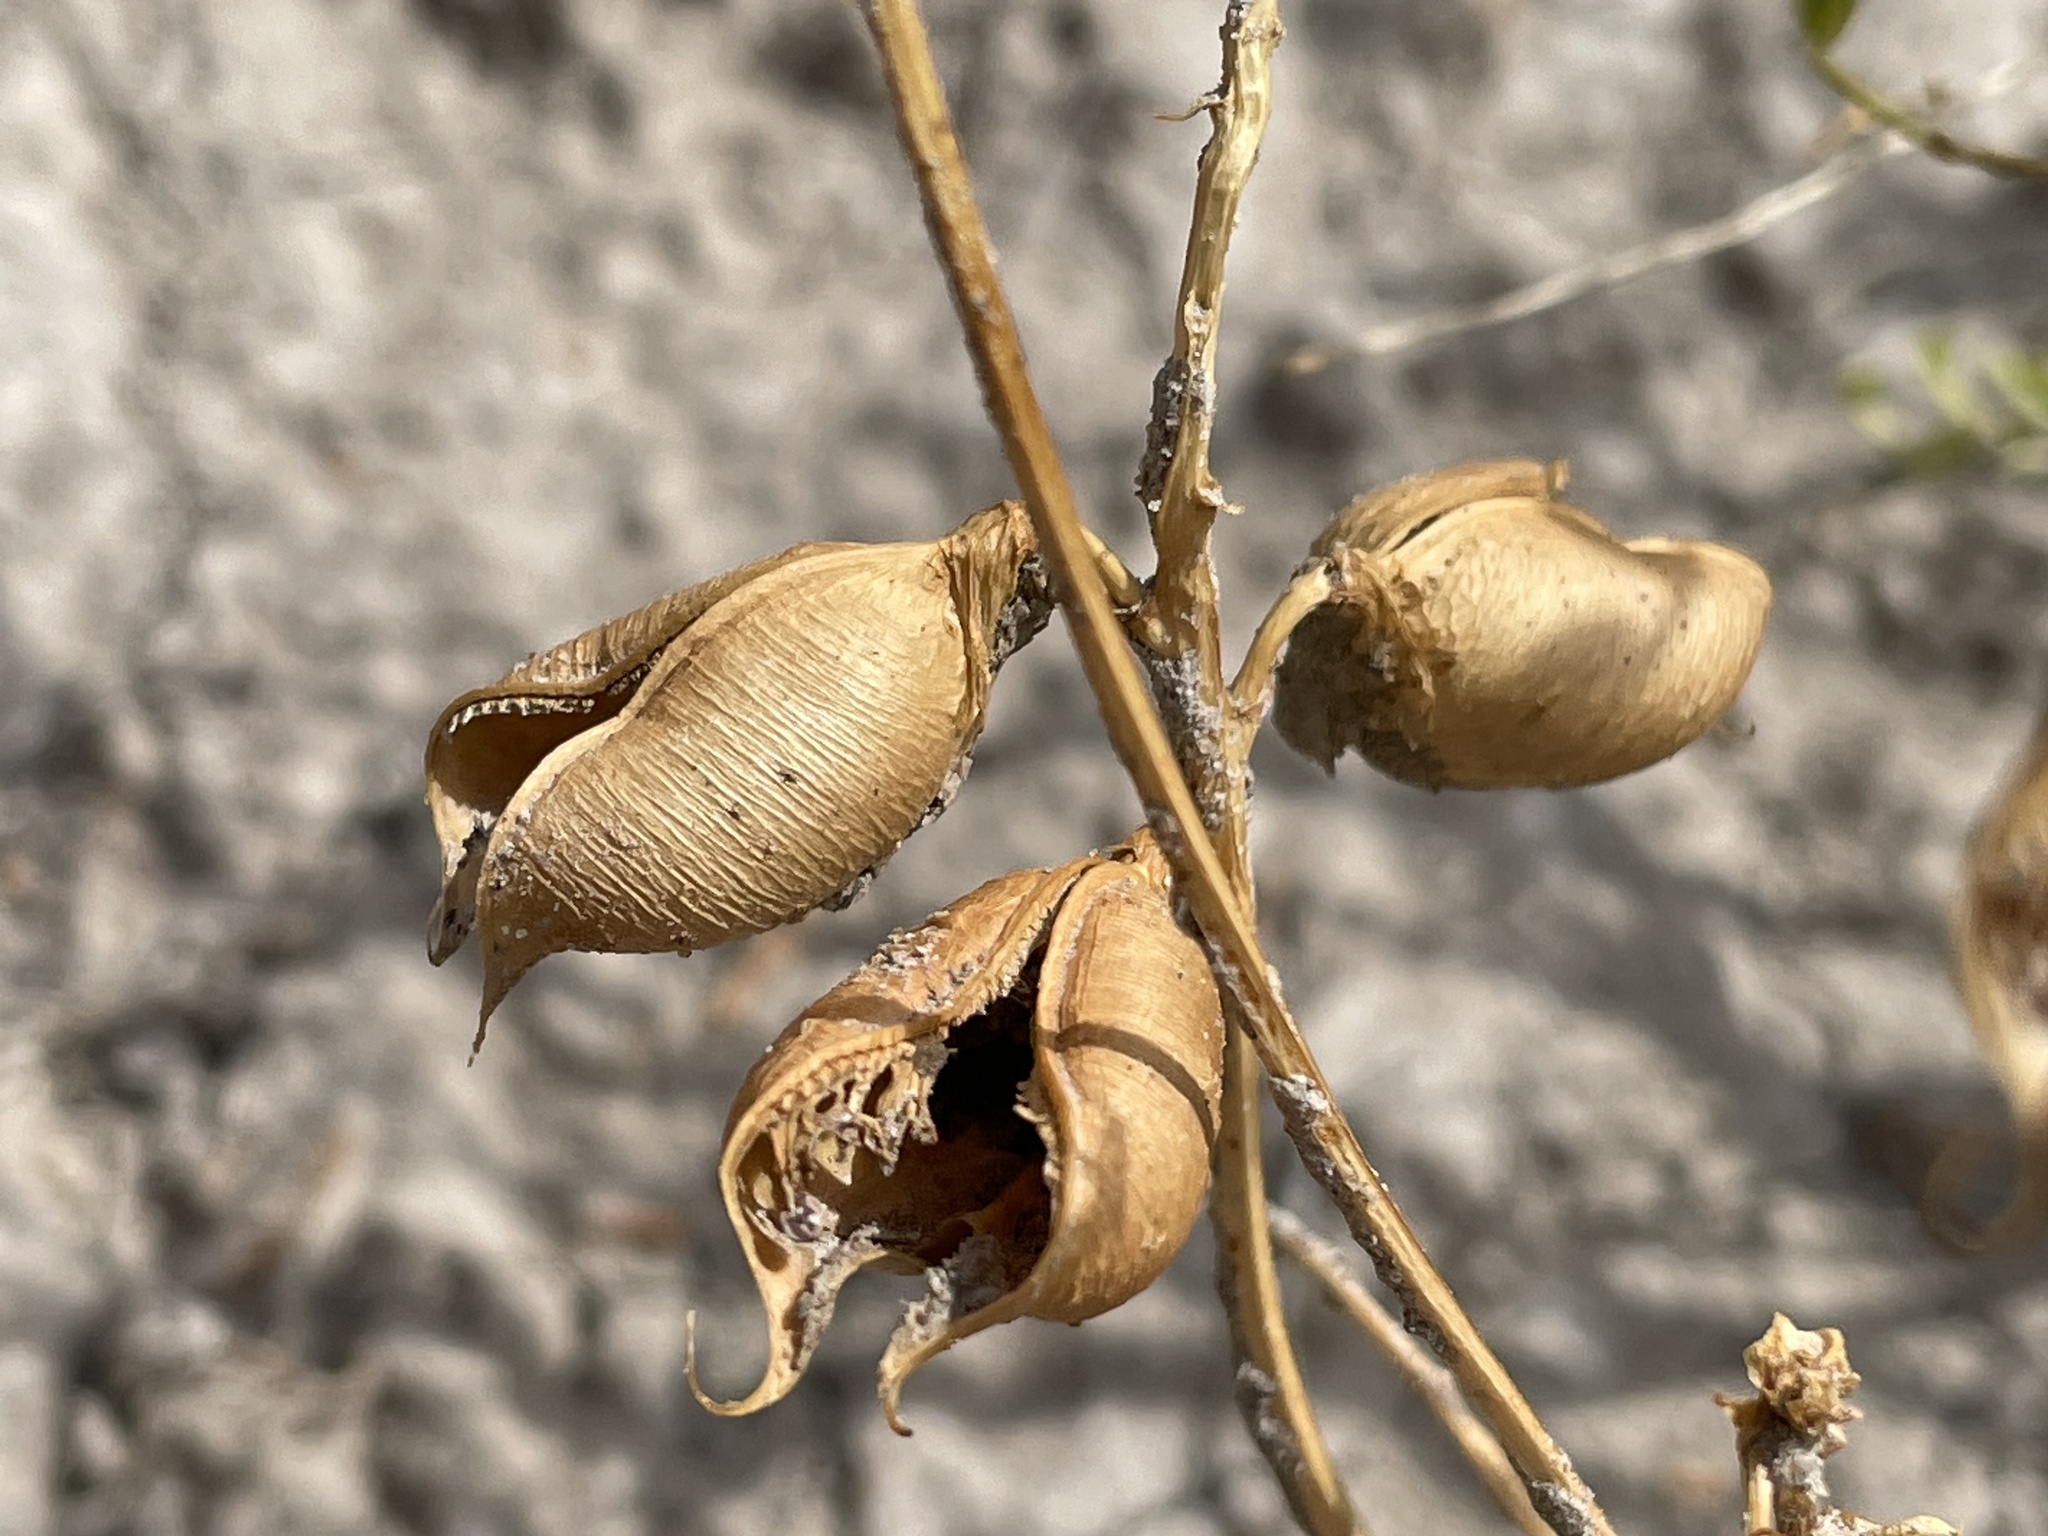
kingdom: Plantae
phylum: Tracheophyta
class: Magnoliopsida
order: Fabales
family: Fabaceae
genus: Astragalus
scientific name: Astragalus praelongus
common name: Stinking milk-vetch
